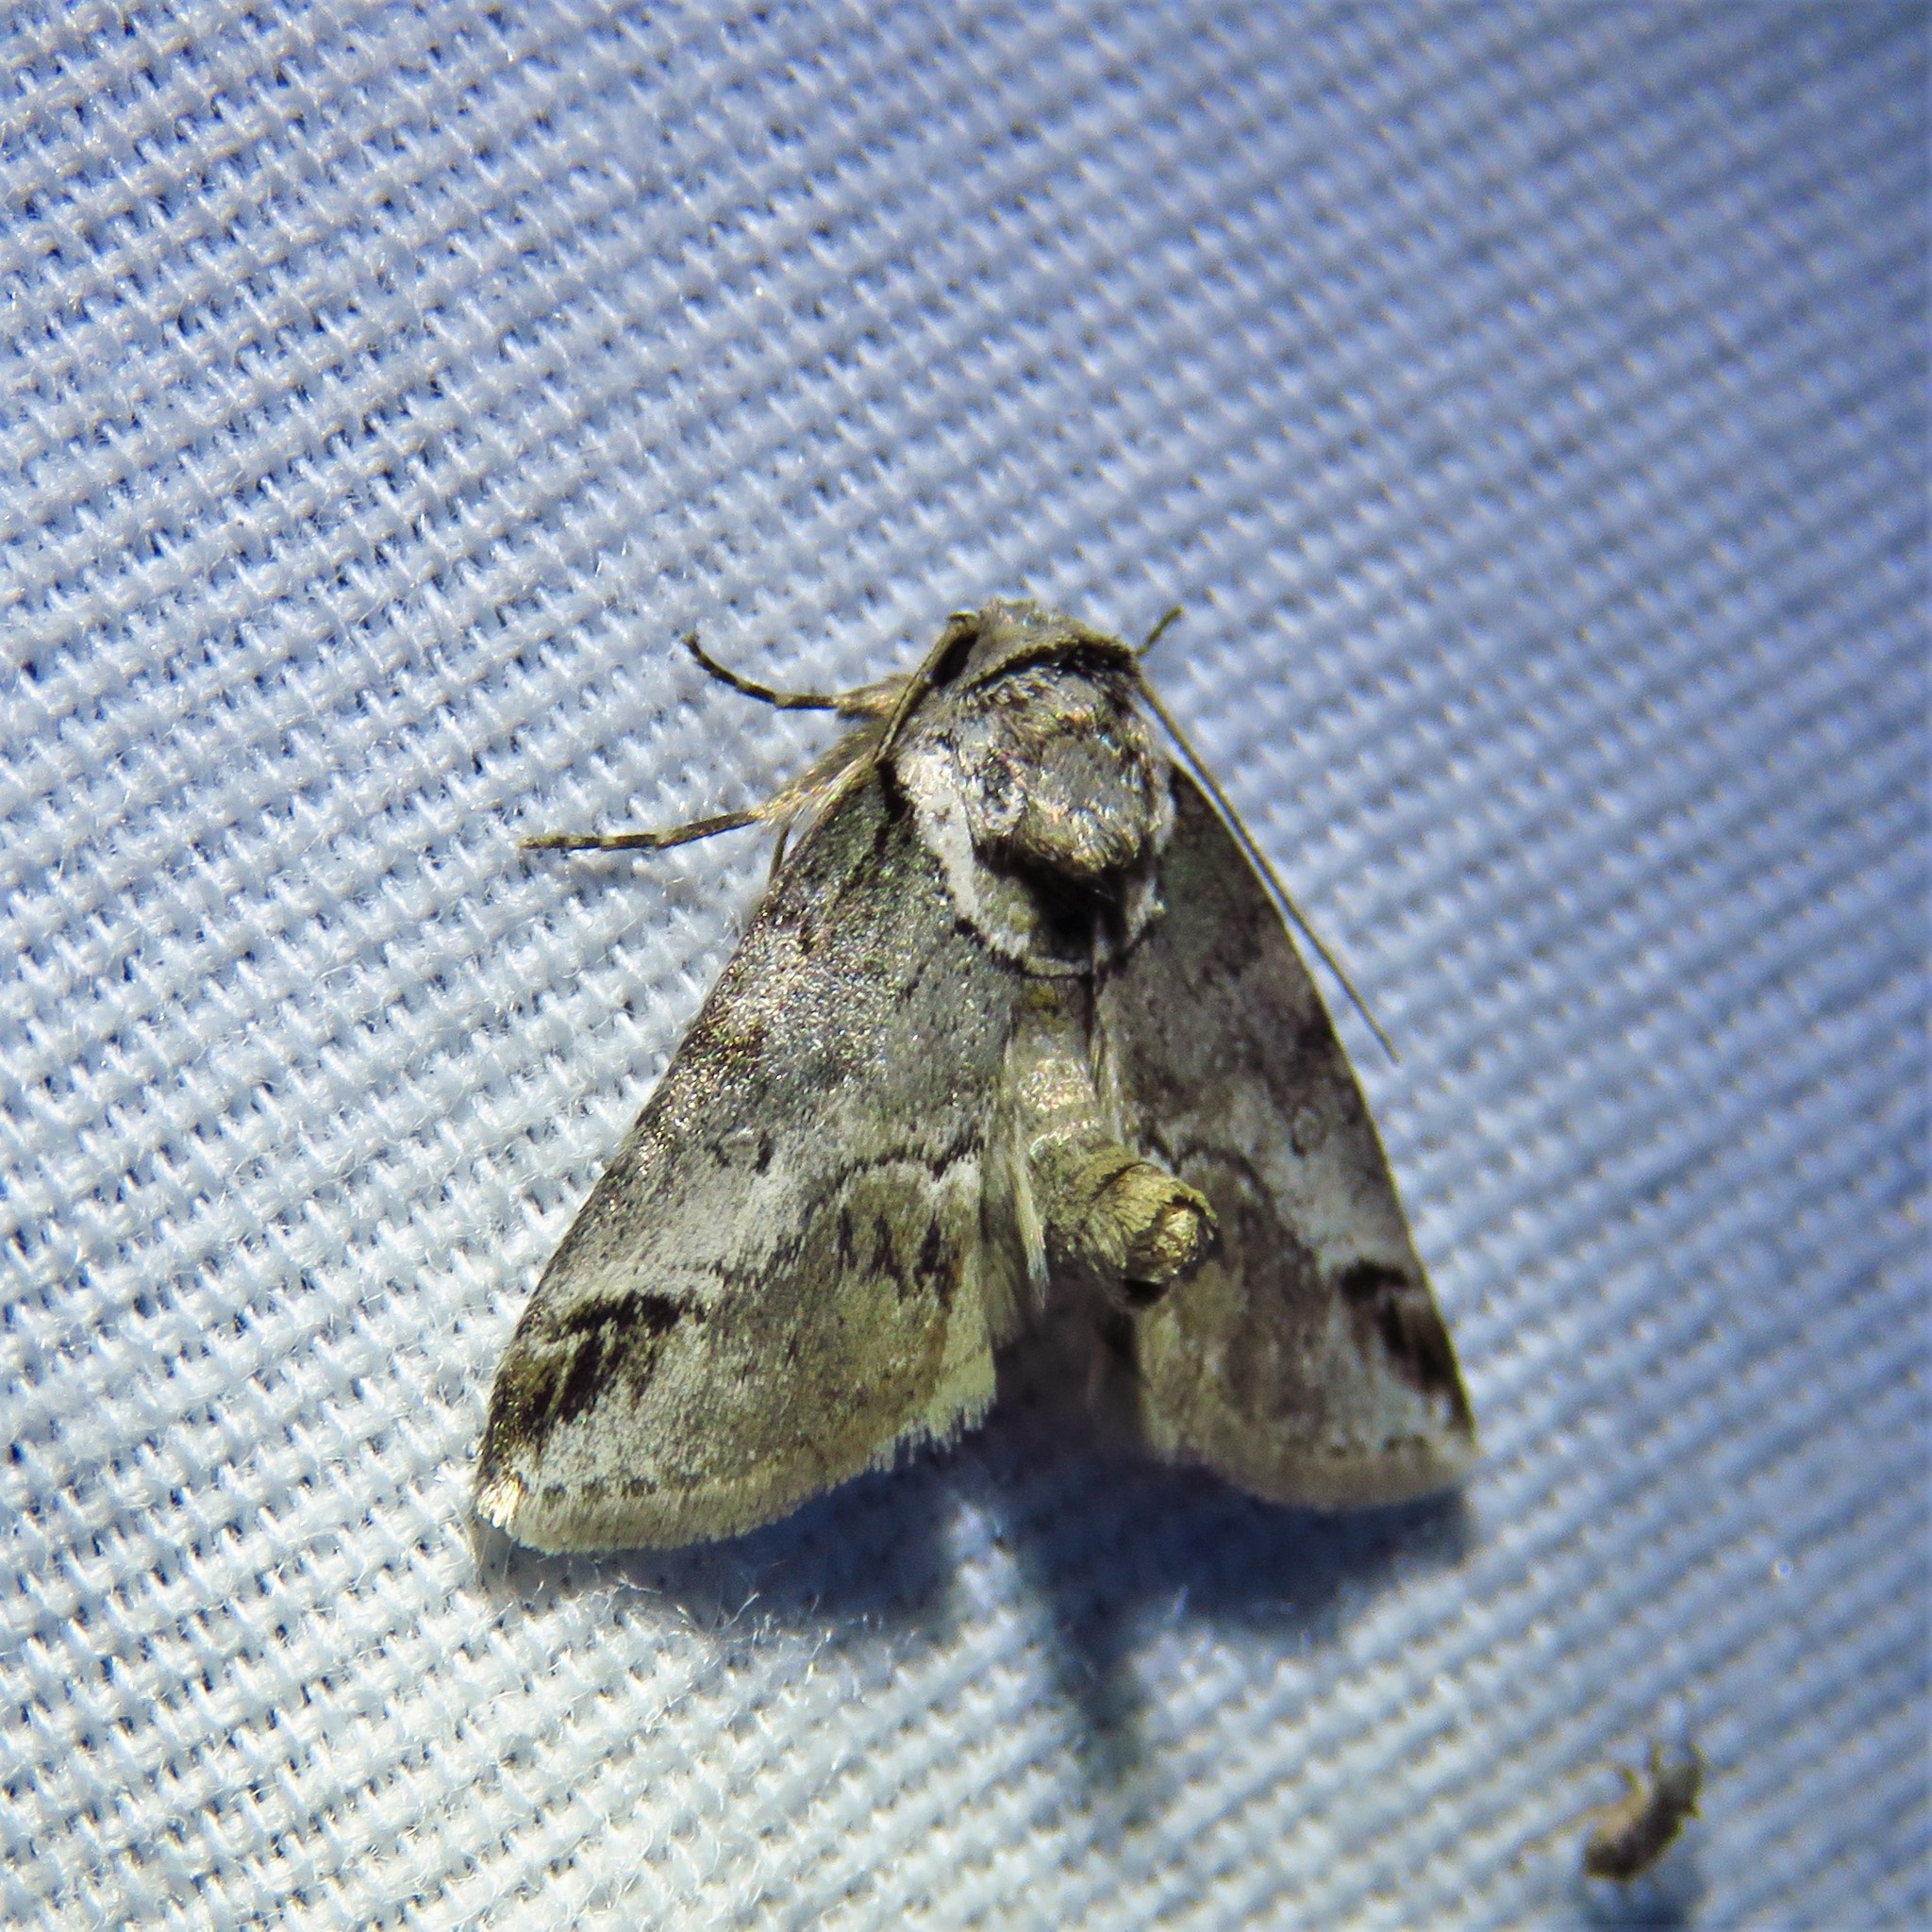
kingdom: Animalia
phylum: Arthropoda
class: Insecta
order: Lepidoptera
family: Nolidae
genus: Baileya
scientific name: Baileya australis
